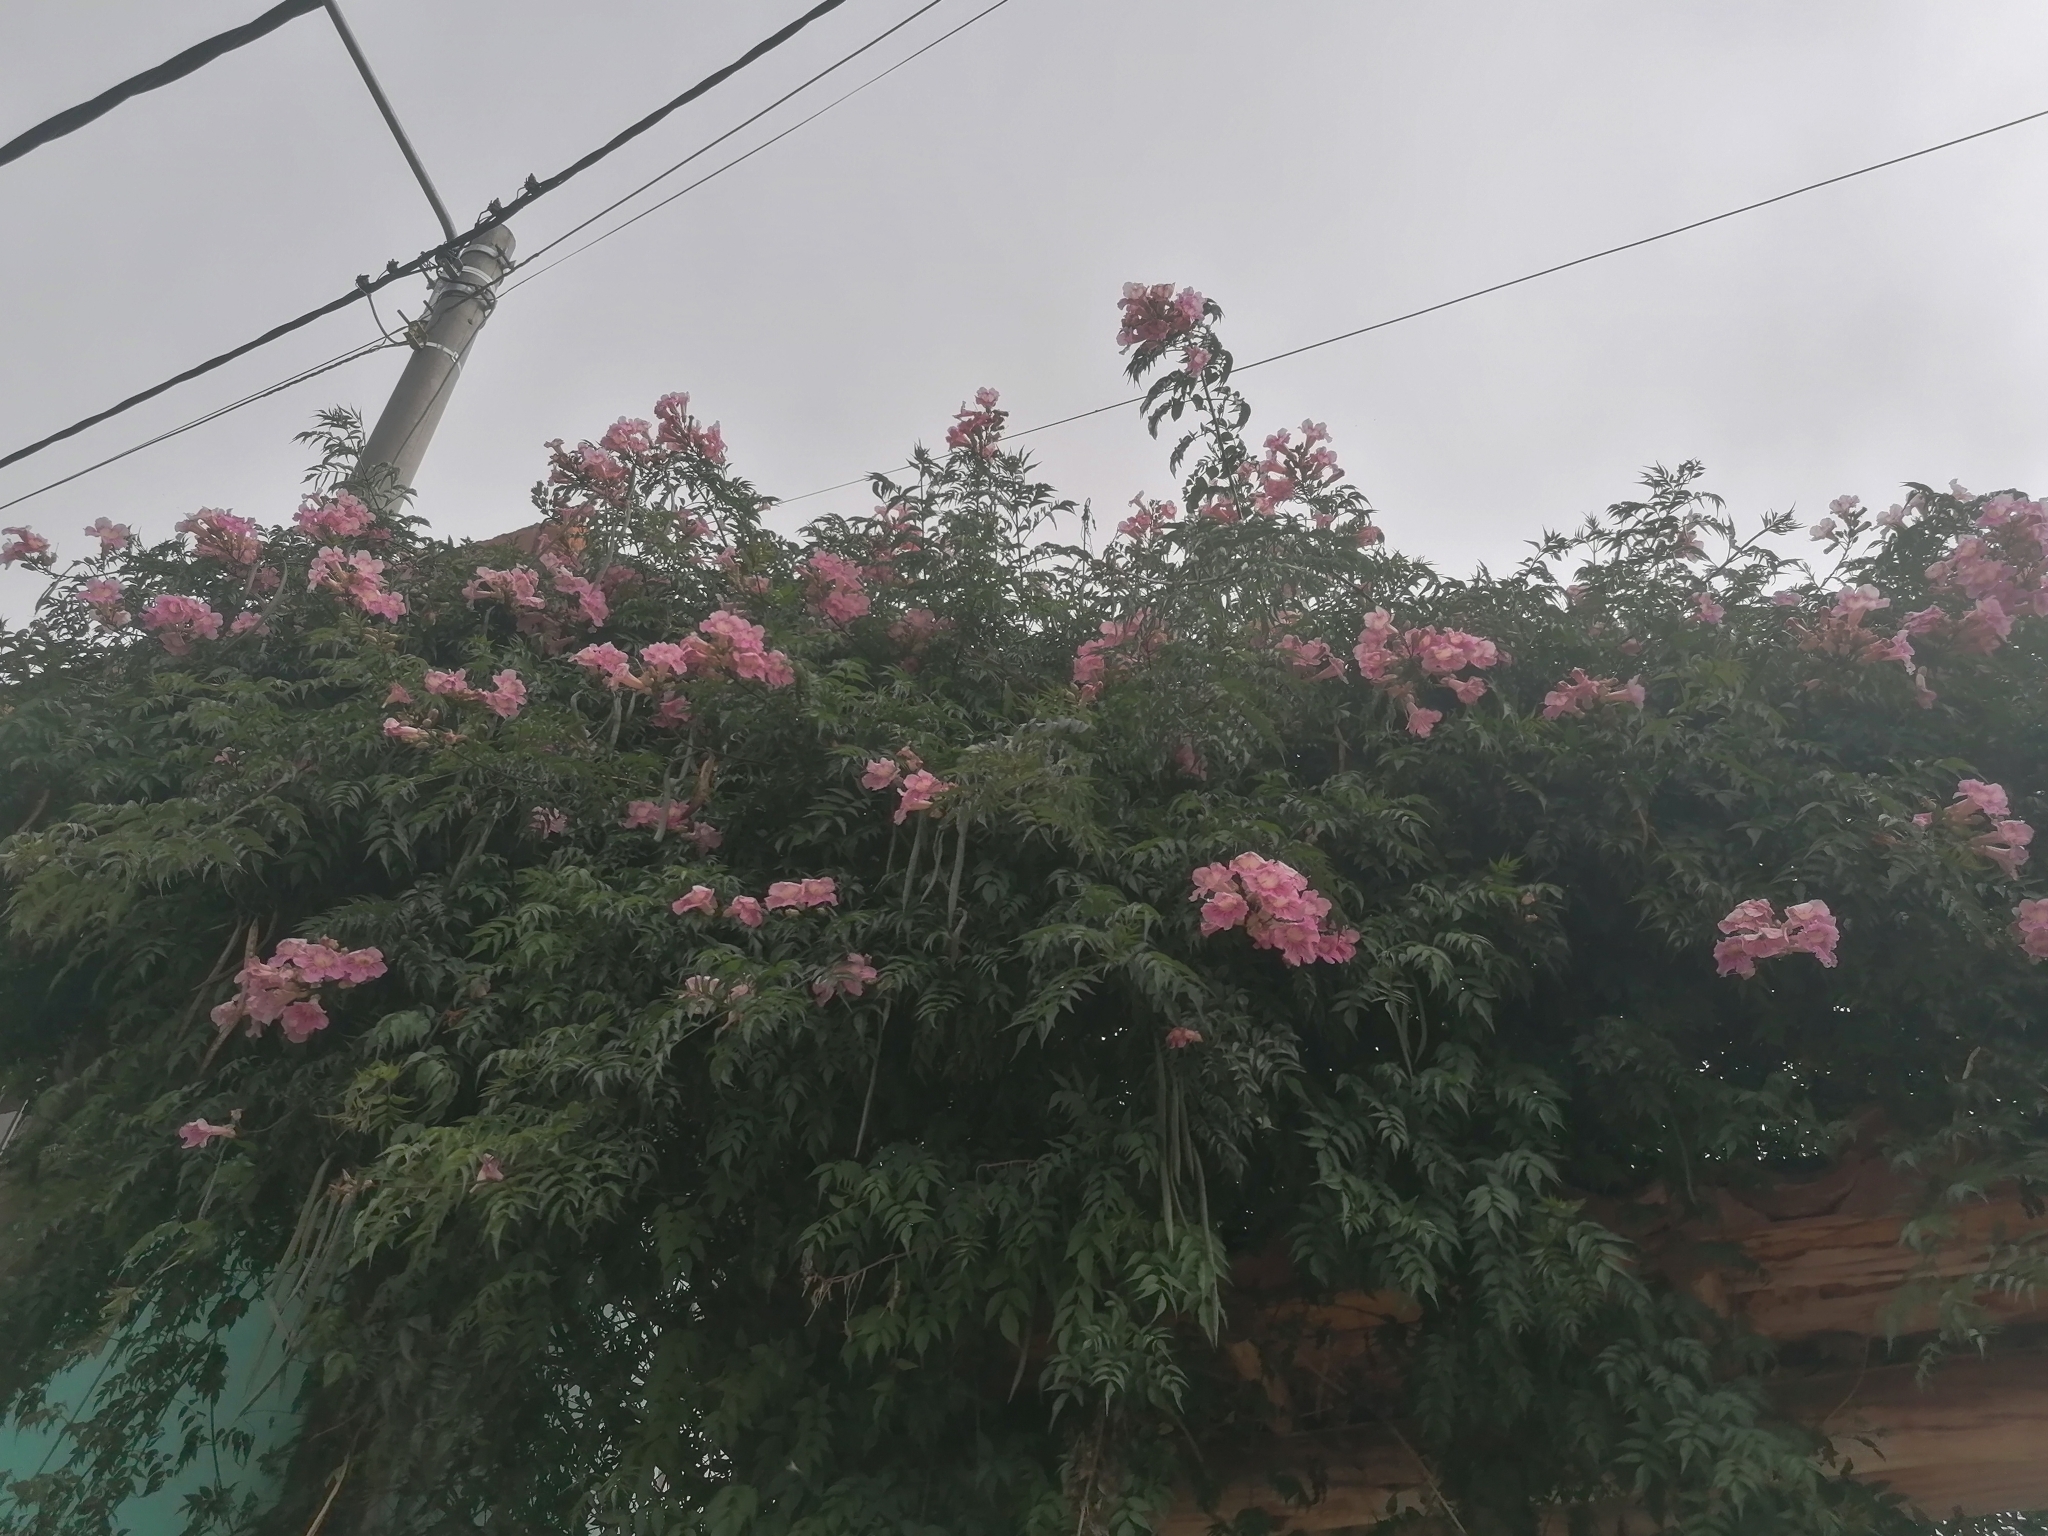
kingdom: Plantae
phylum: Tracheophyta
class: Magnoliopsida
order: Lamiales
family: Bignoniaceae
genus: Podranea
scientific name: Podranea ricasoliana
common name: Zimbabwe creeper
